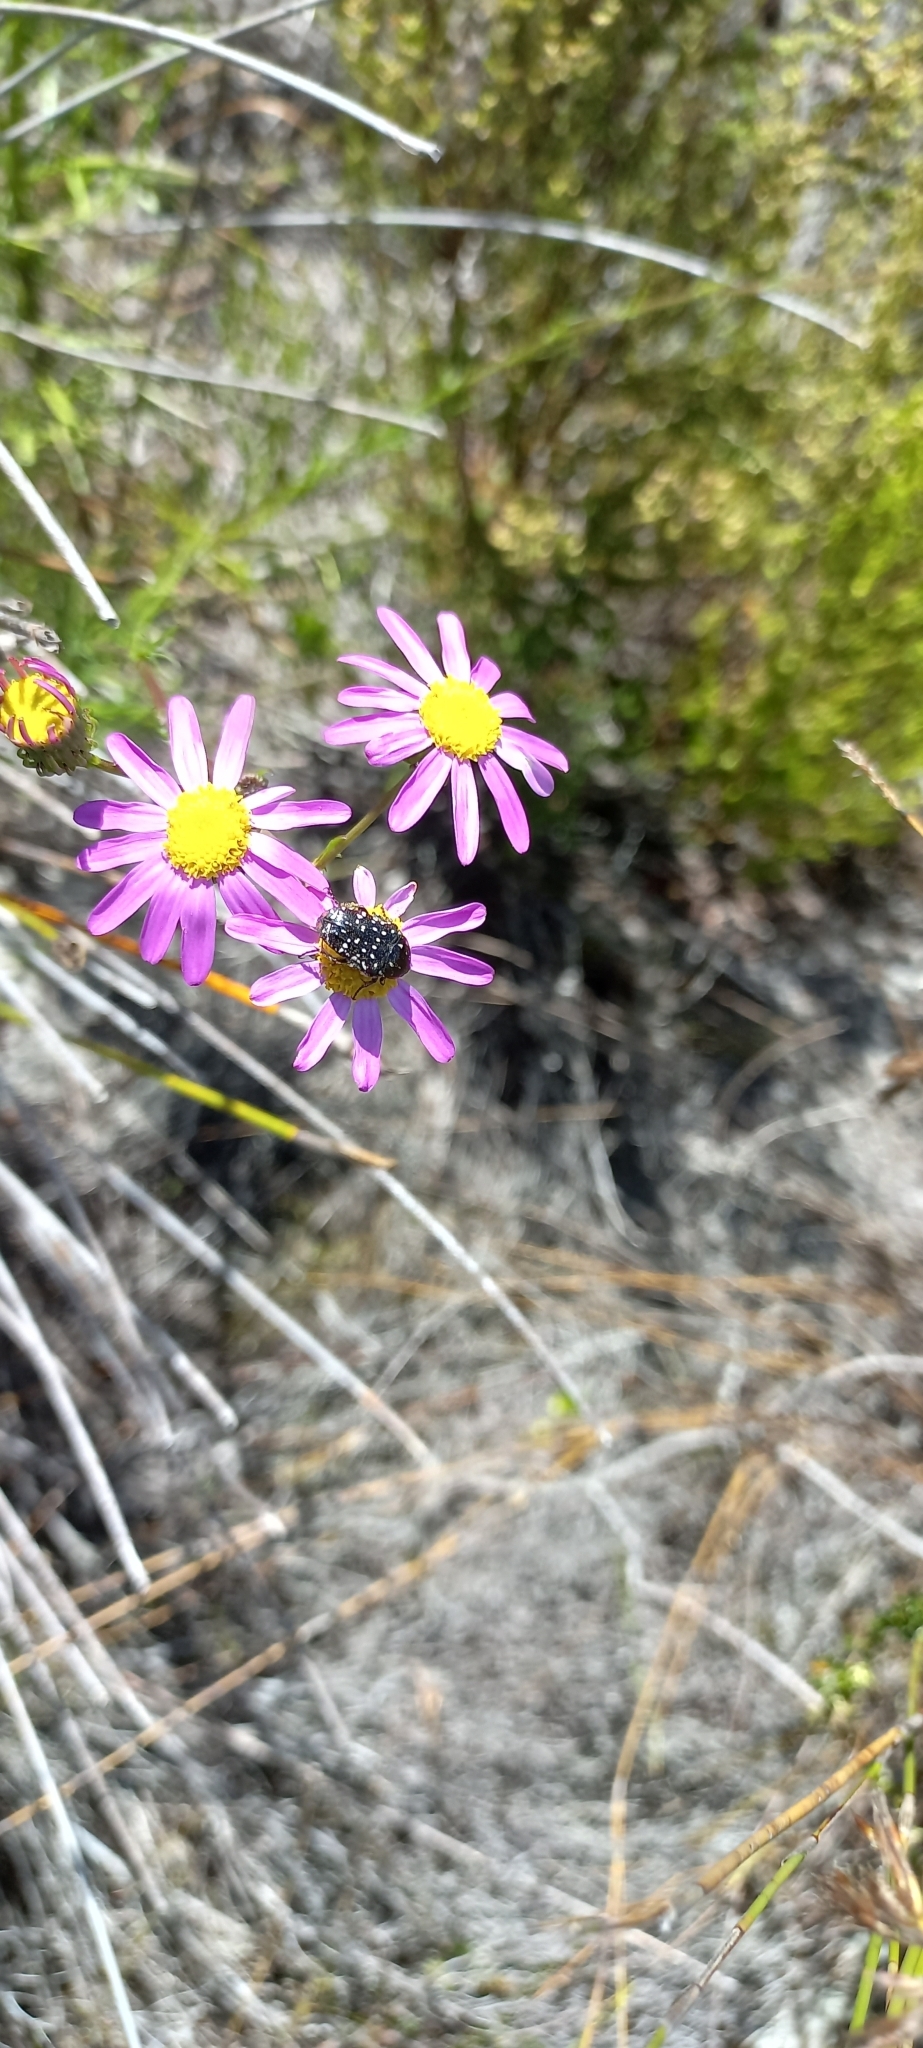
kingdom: Animalia
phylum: Arthropoda
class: Insecta
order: Coleoptera
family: Scarabaeidae
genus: Oxythyrea
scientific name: Oxythyrea
